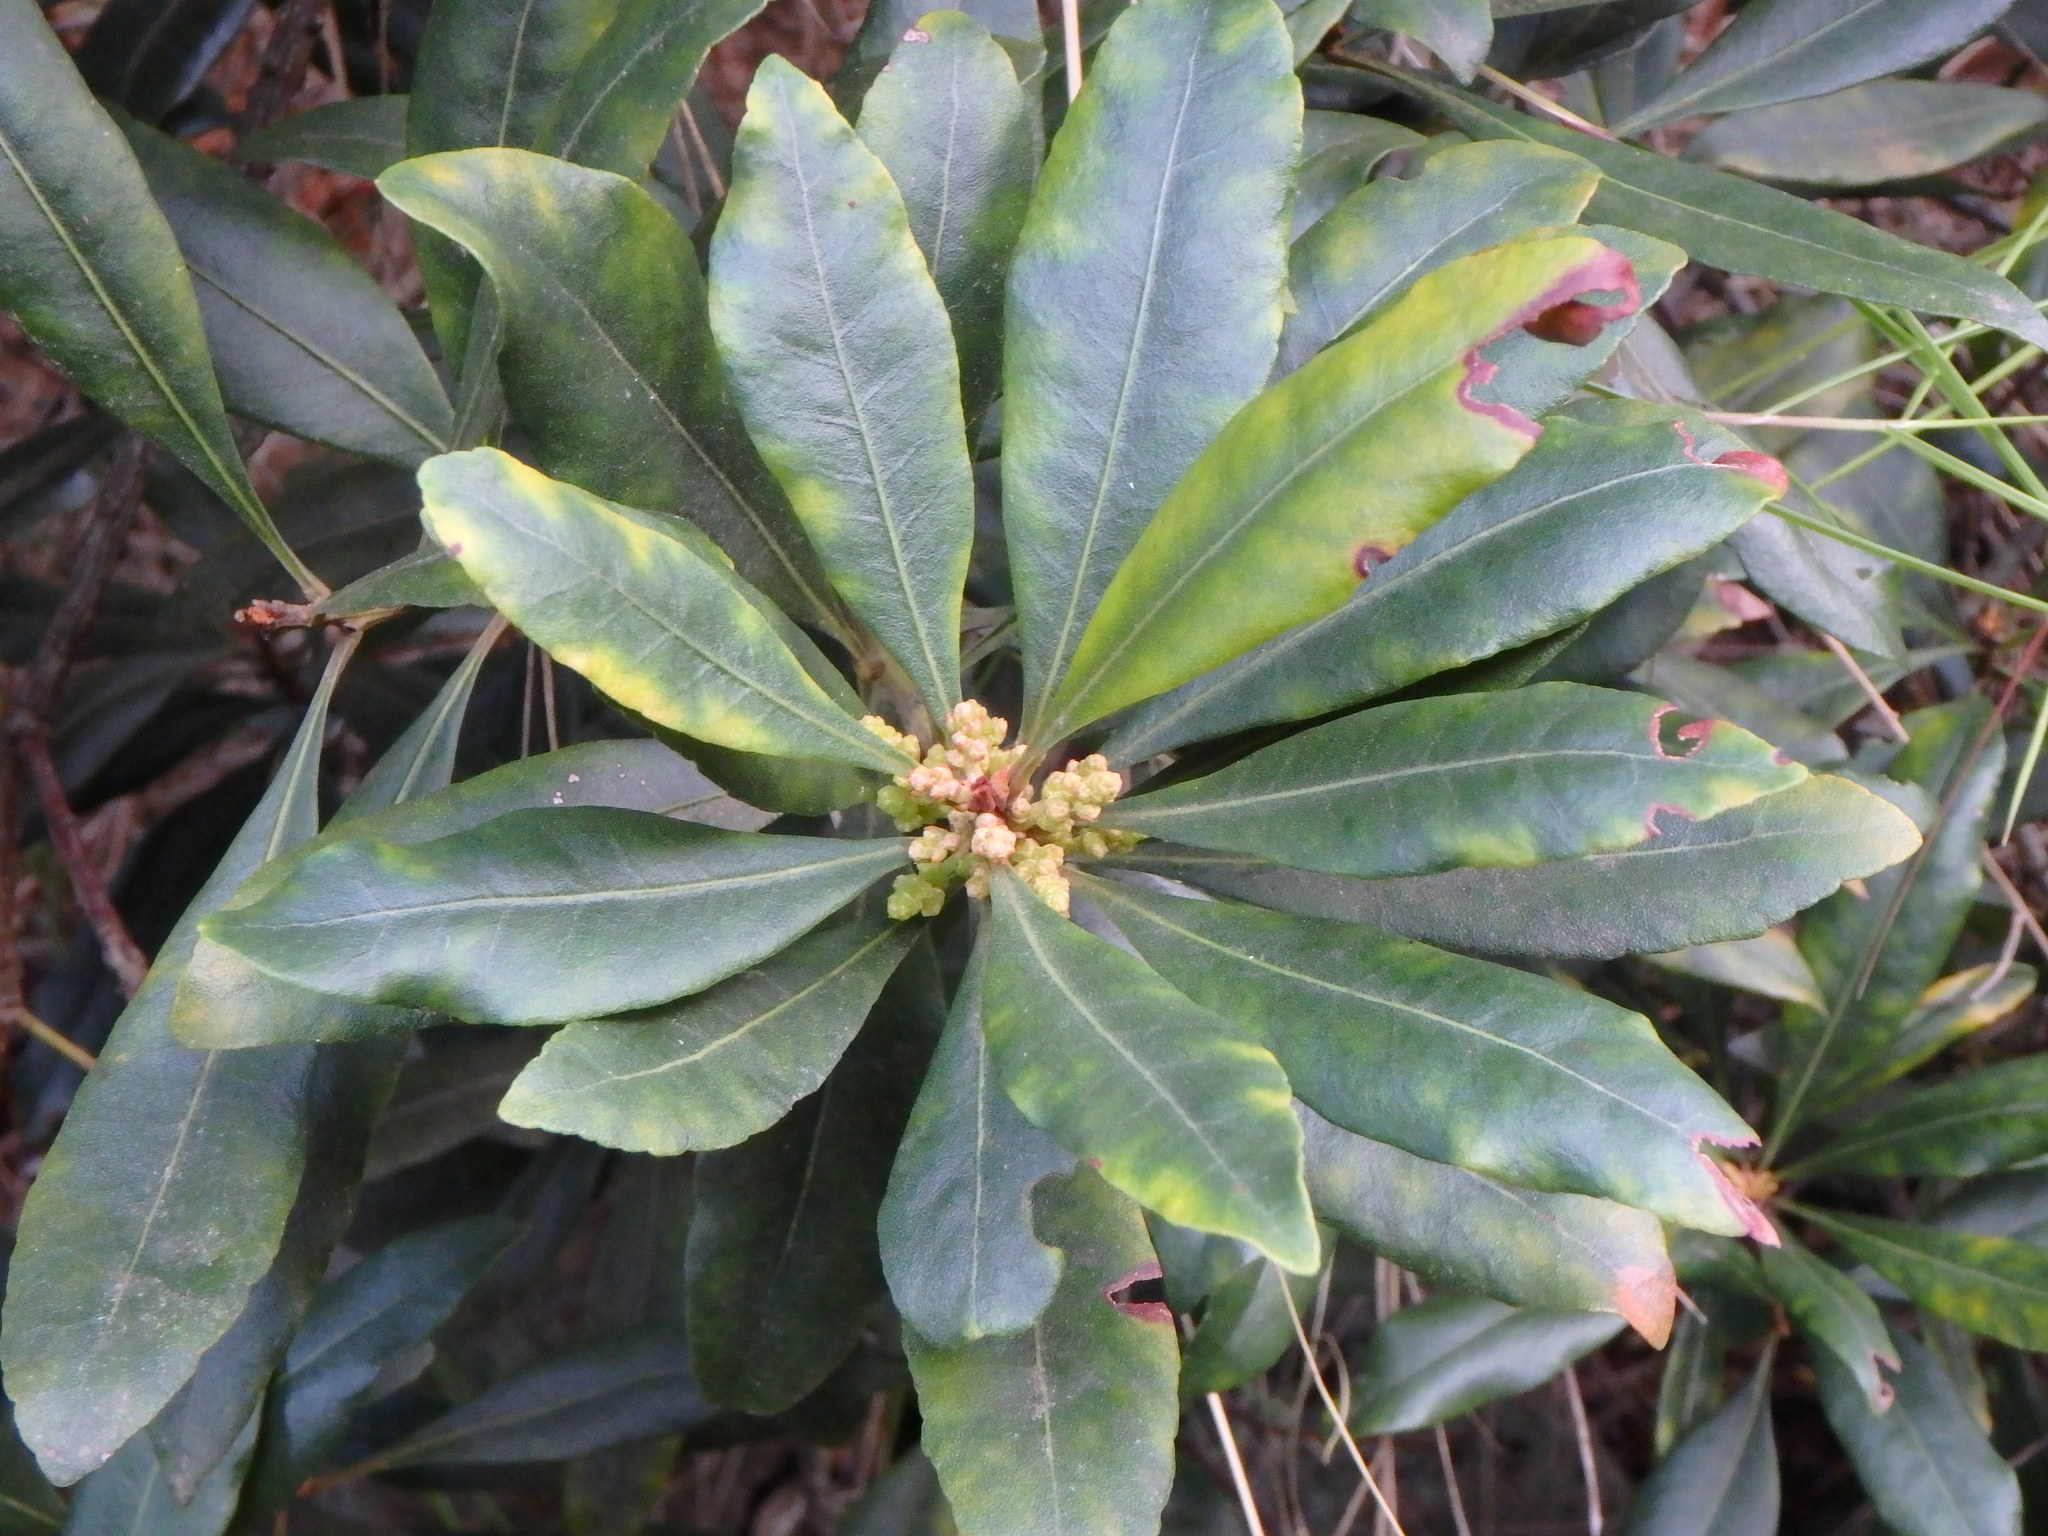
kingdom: Plantae
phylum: Tracheophyta
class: Magnoliopsida
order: Fagales
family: Myricaceae
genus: Morella
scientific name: Morella faya
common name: Firetree
